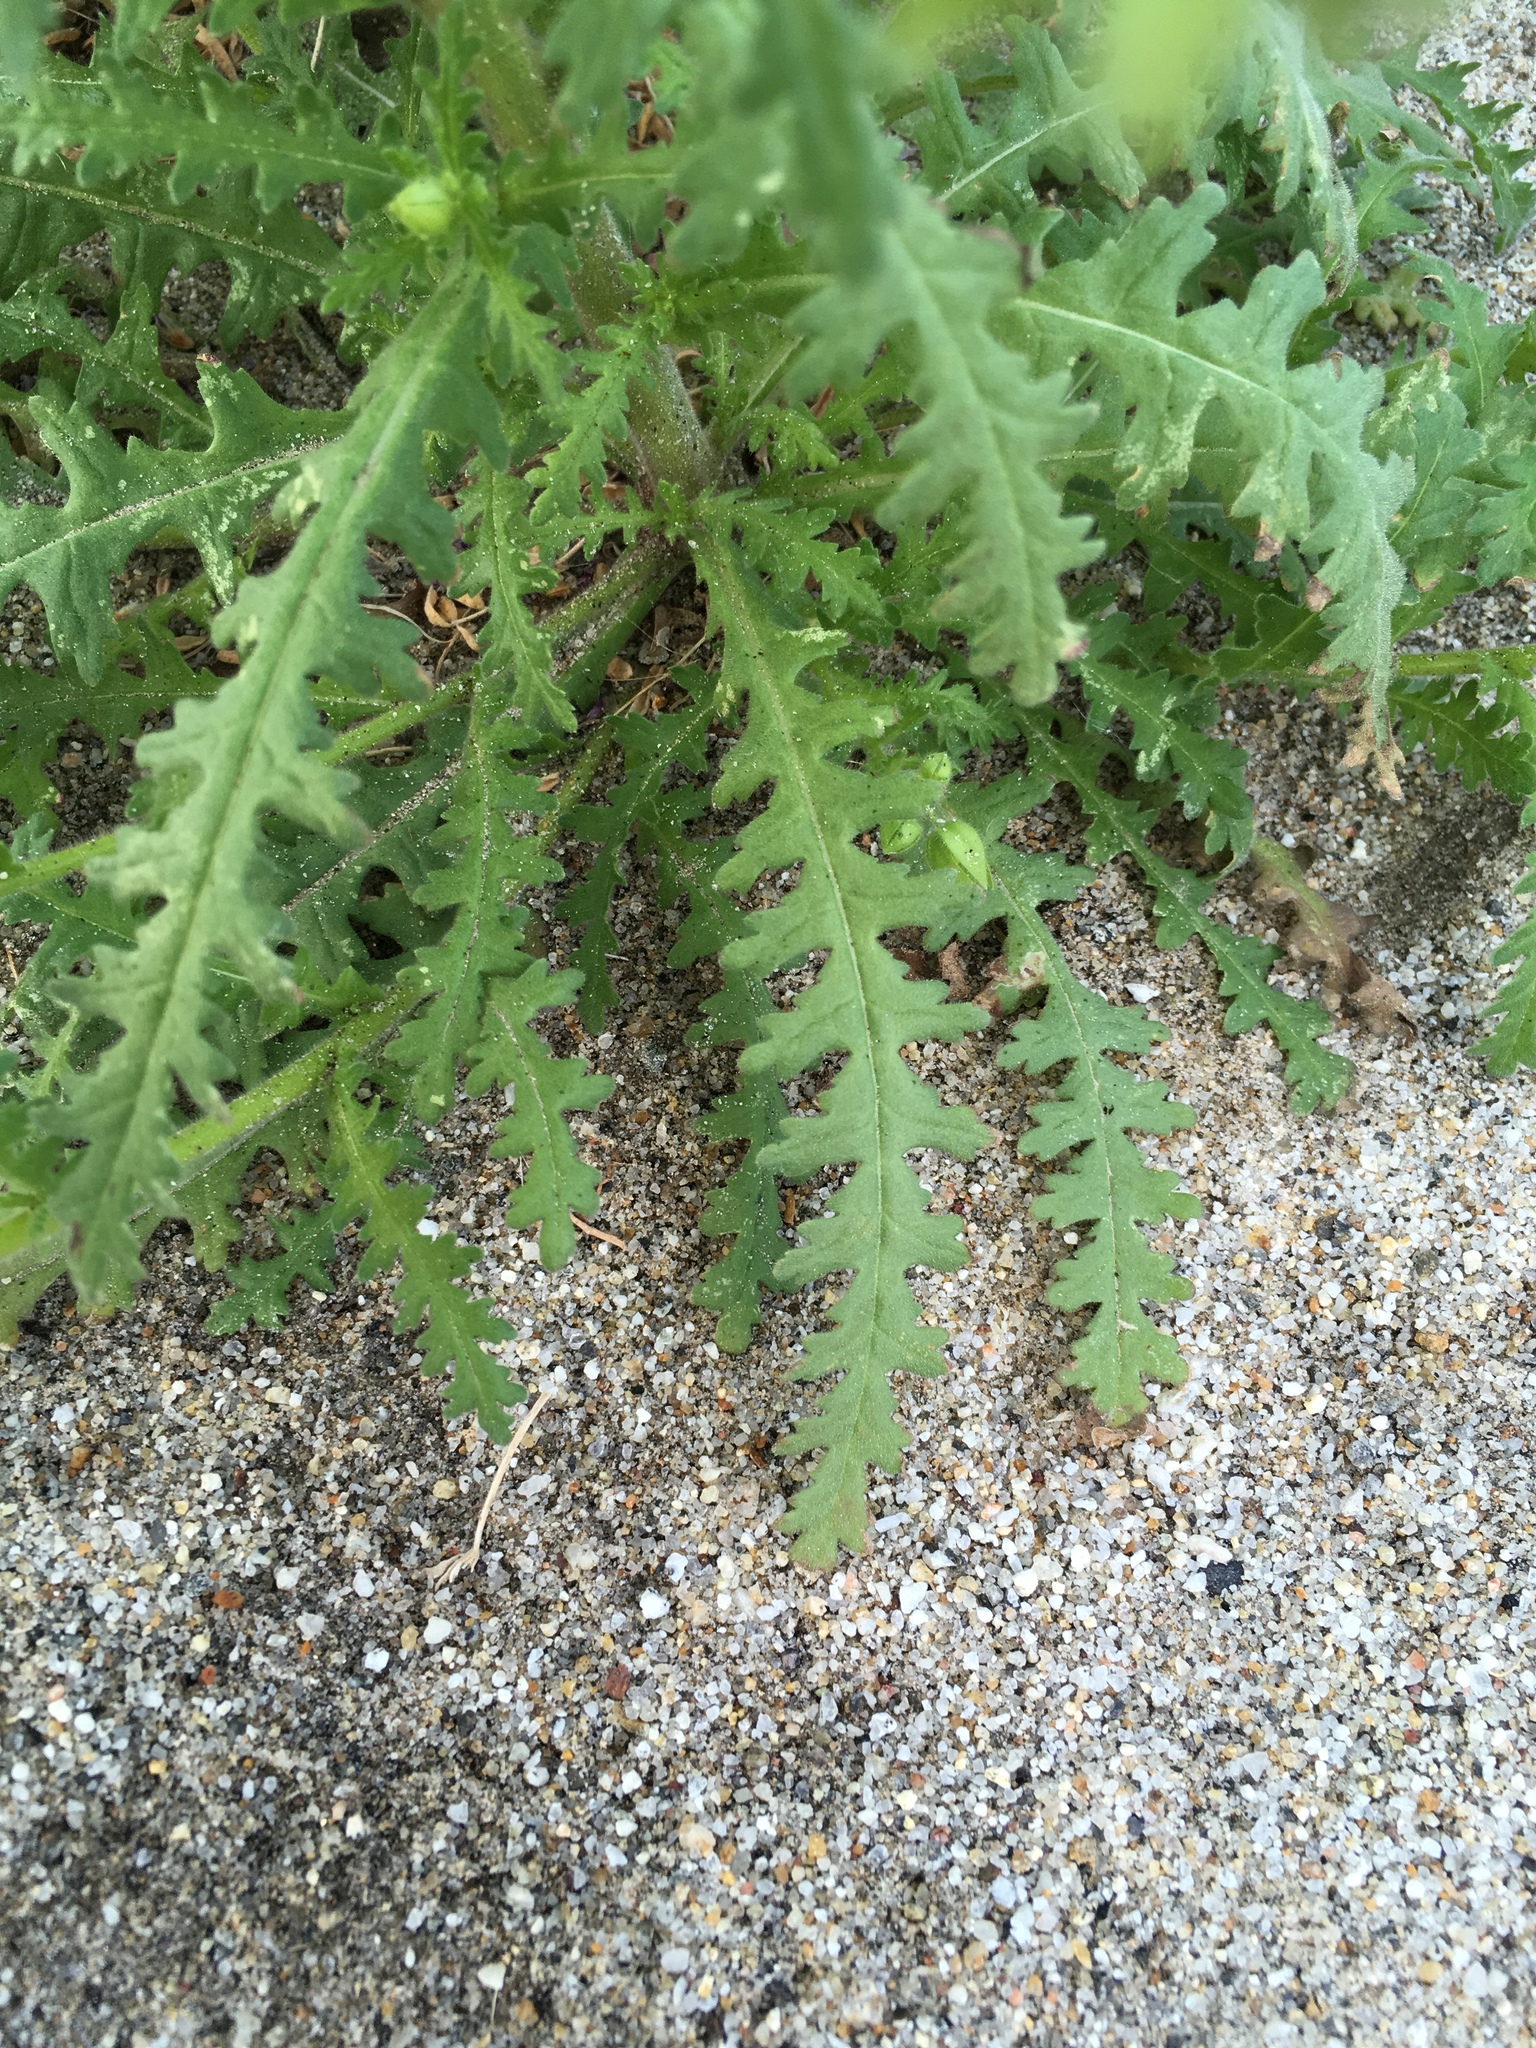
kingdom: Plantae
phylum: Tracheophyta
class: Magnoliopsida
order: Boraginales
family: Hydrophyllaceae
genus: Emmenanthe
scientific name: Emmenanthe penduliflora
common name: Whispering-bells
